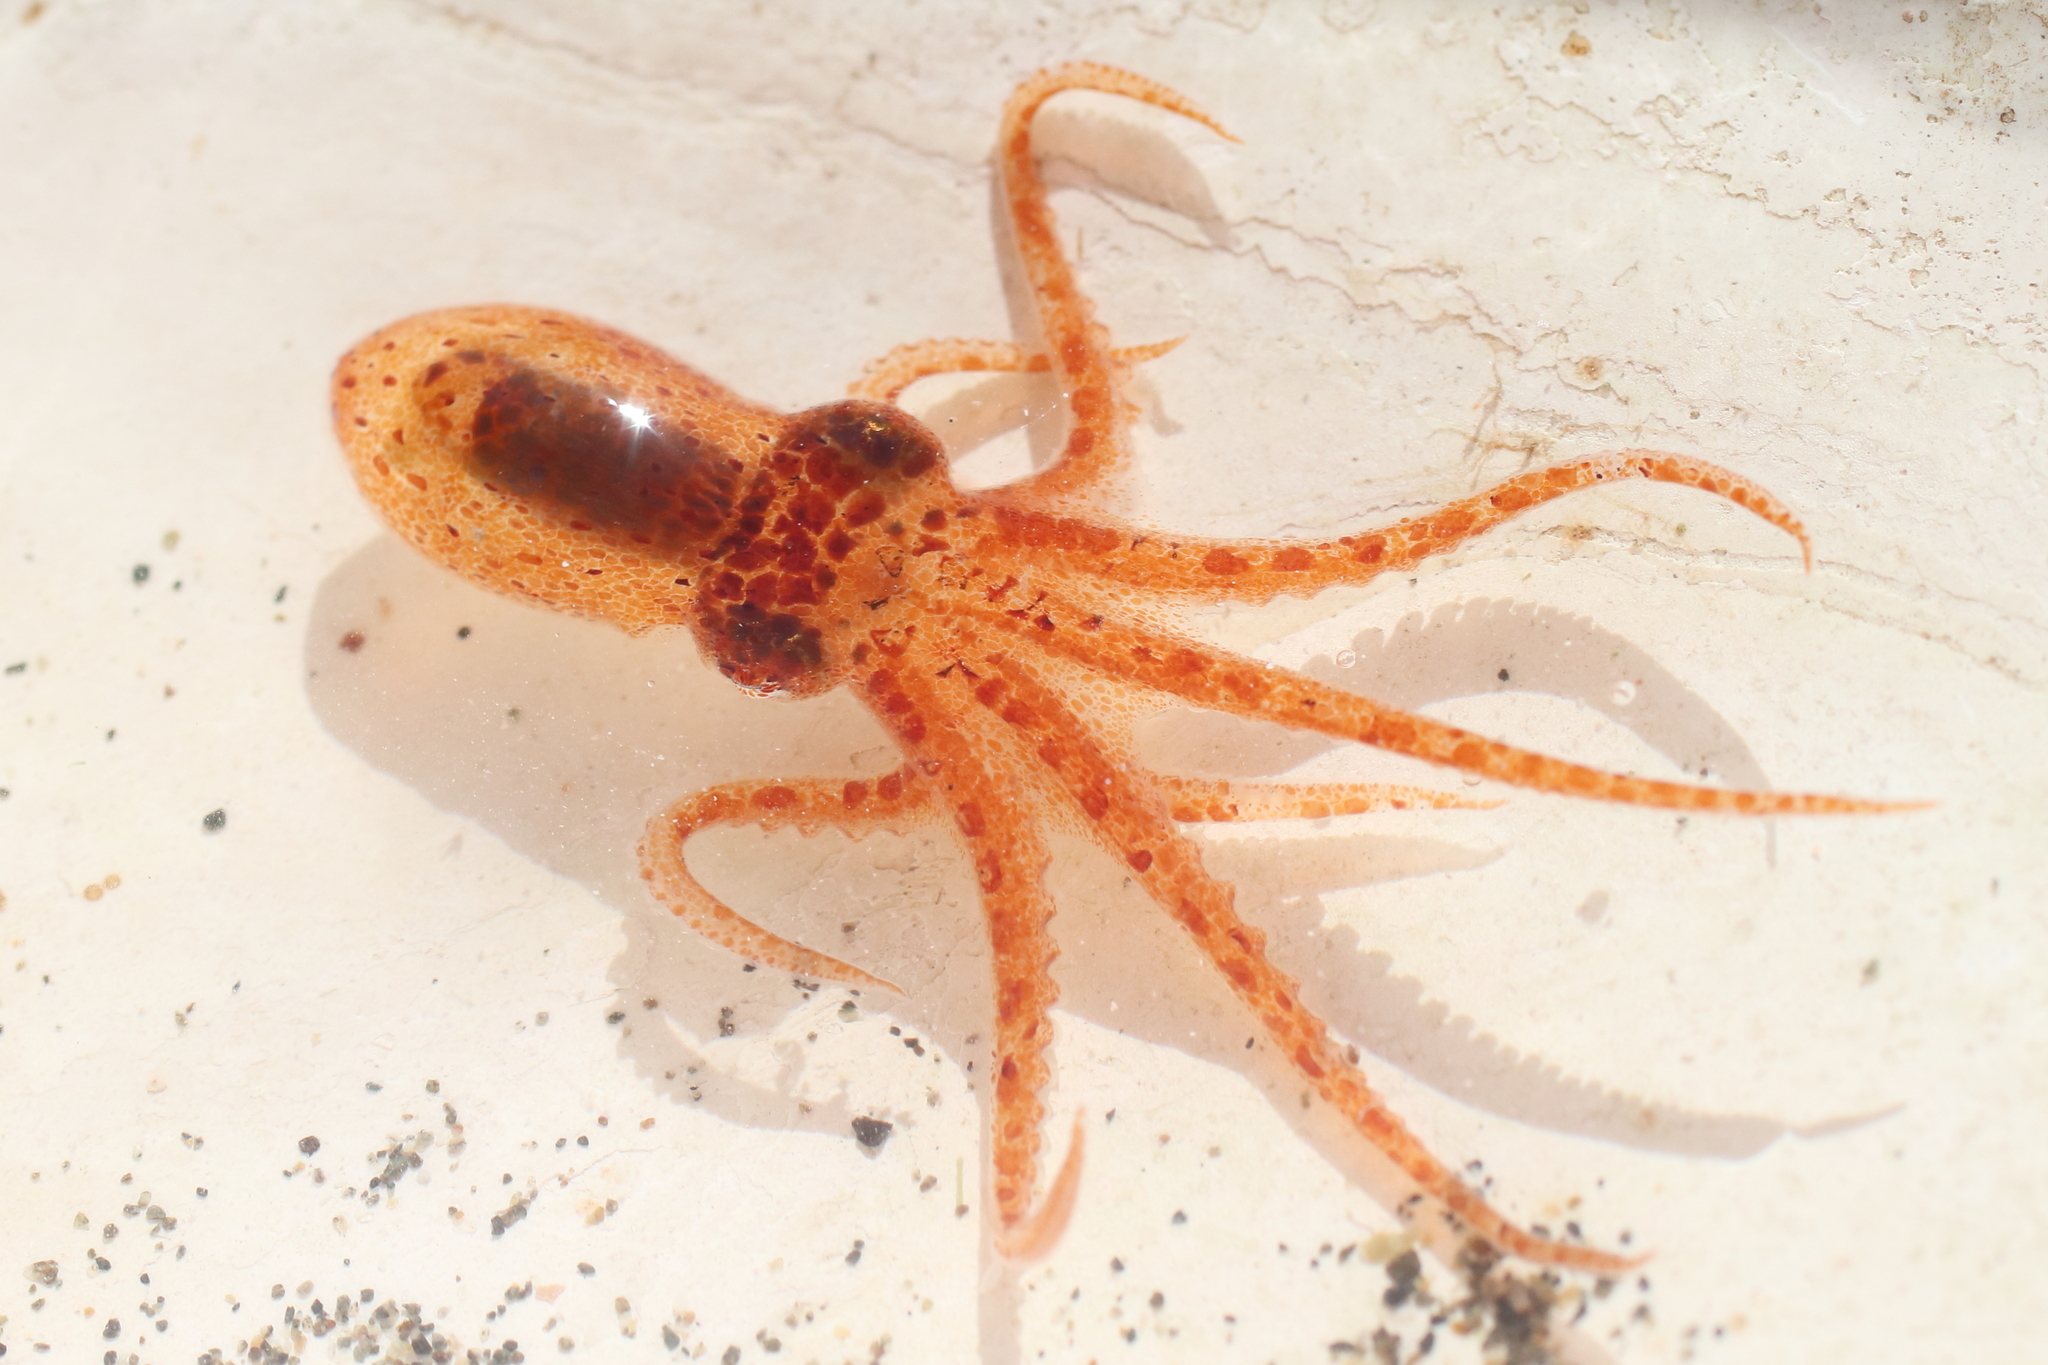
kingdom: Animalia
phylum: Mollusca
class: Cephalopoda
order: Octopoda
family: Enteroctopodidae
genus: Enteroctopus
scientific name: Enteroctopus dofleini
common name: Giant north pacific octopus
